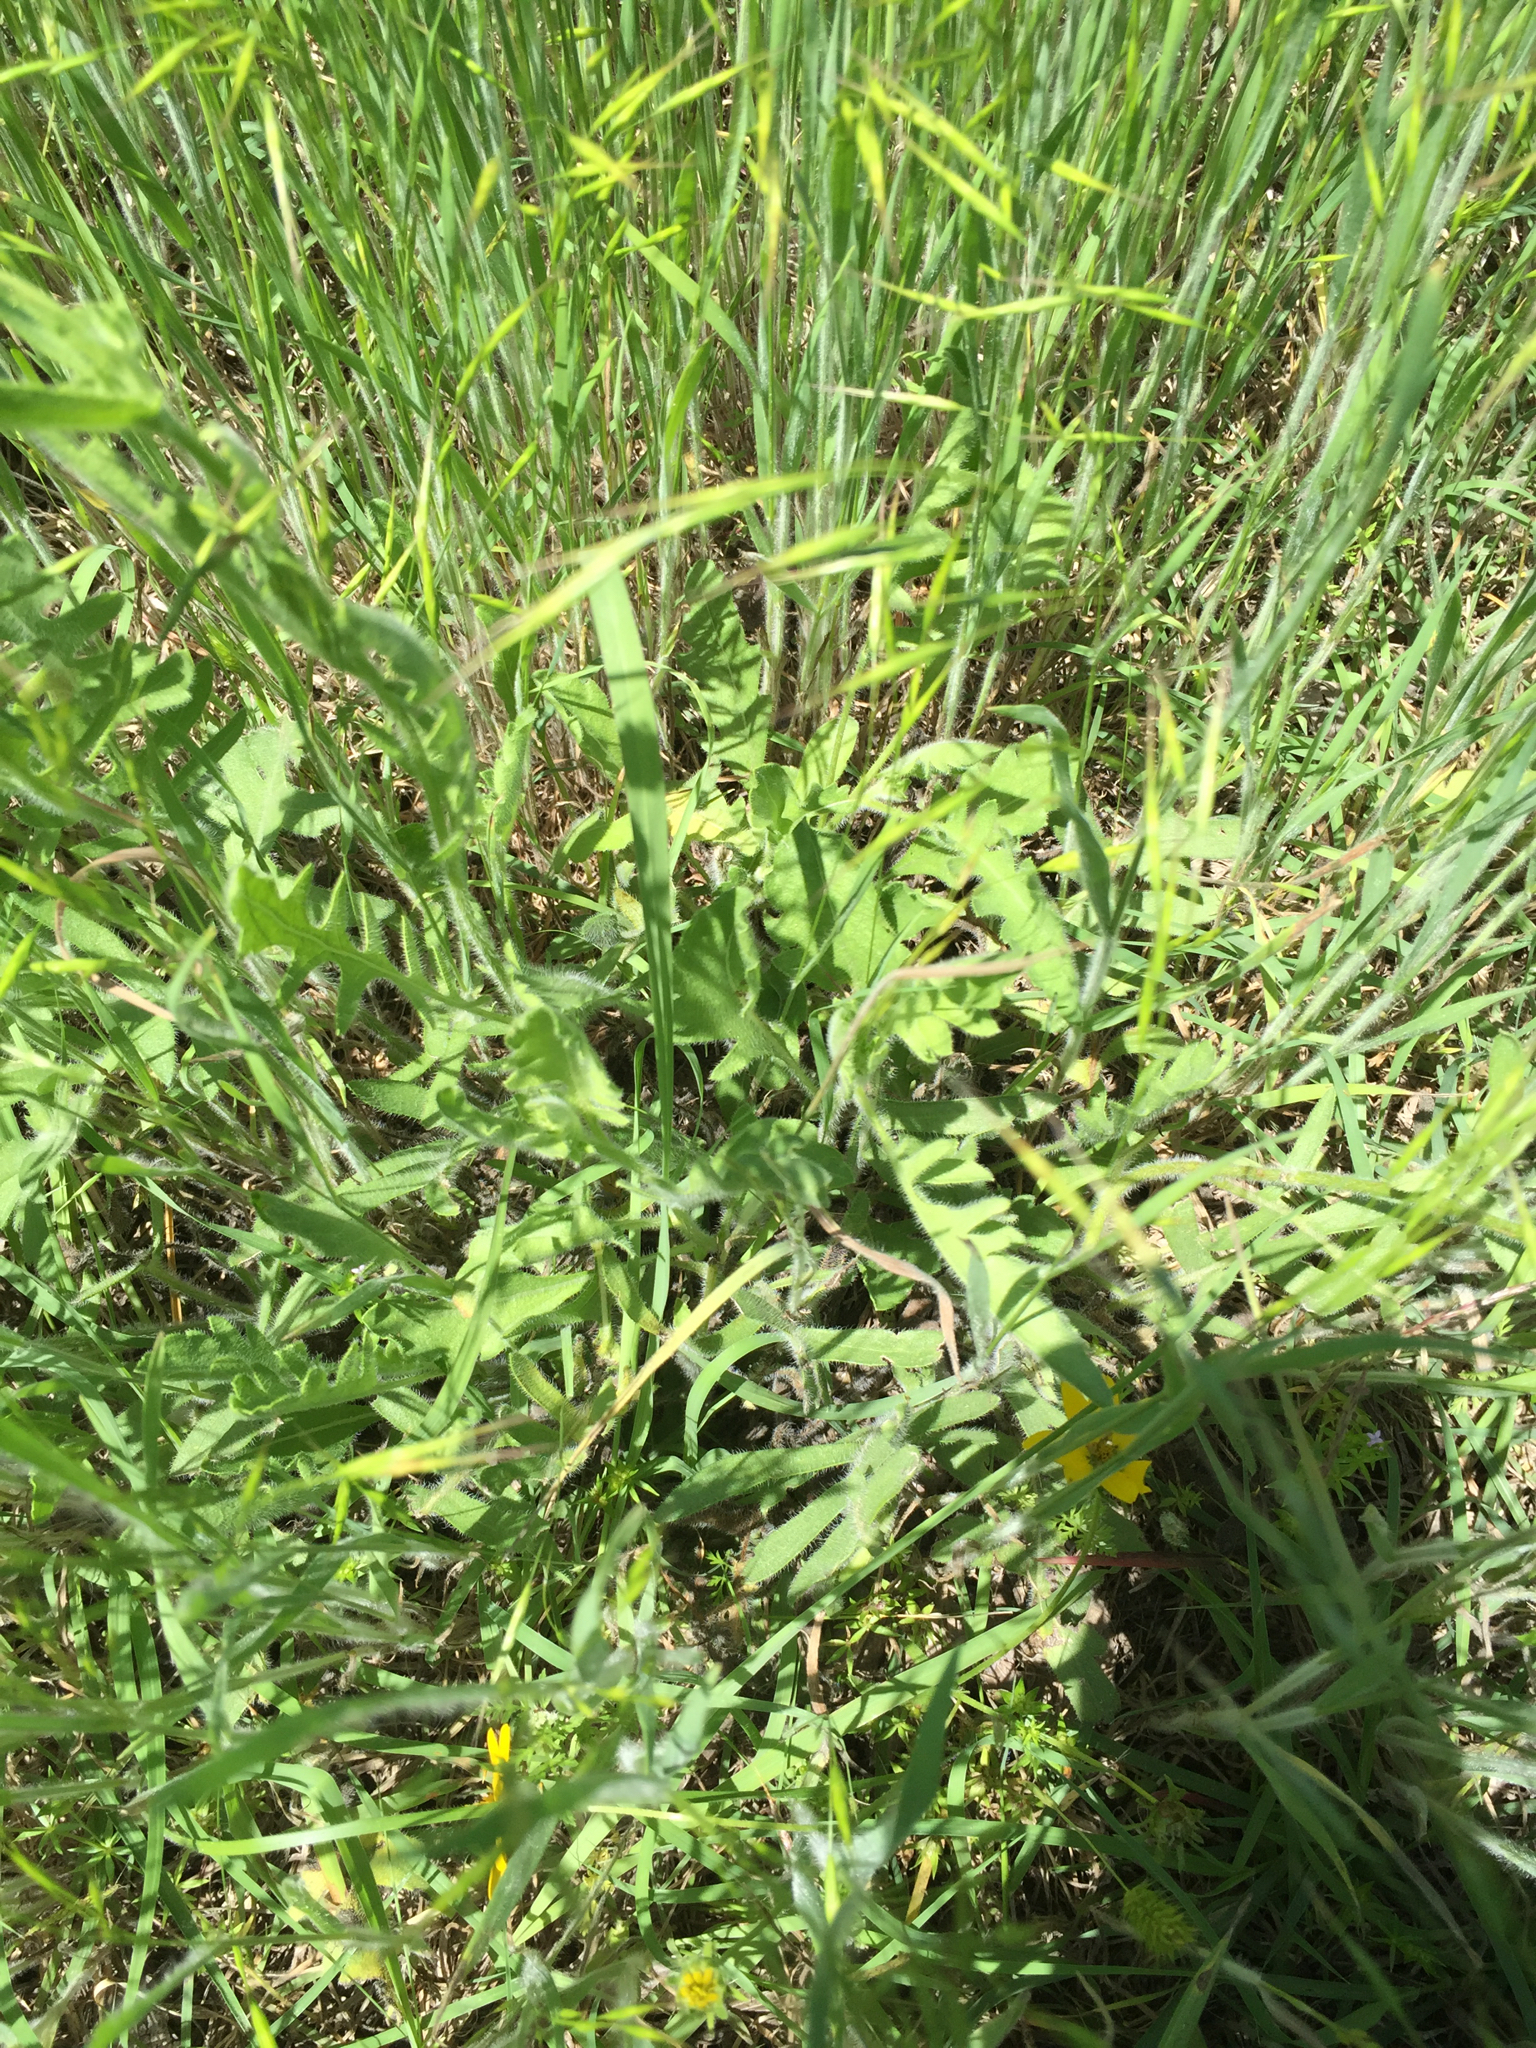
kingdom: Plantae
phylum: Tracheophyta
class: Magnoliopsida
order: Asterales
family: Asteraceae
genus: Engelmannia
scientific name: Engelmannia peristenia
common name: Engelmann's daisy
